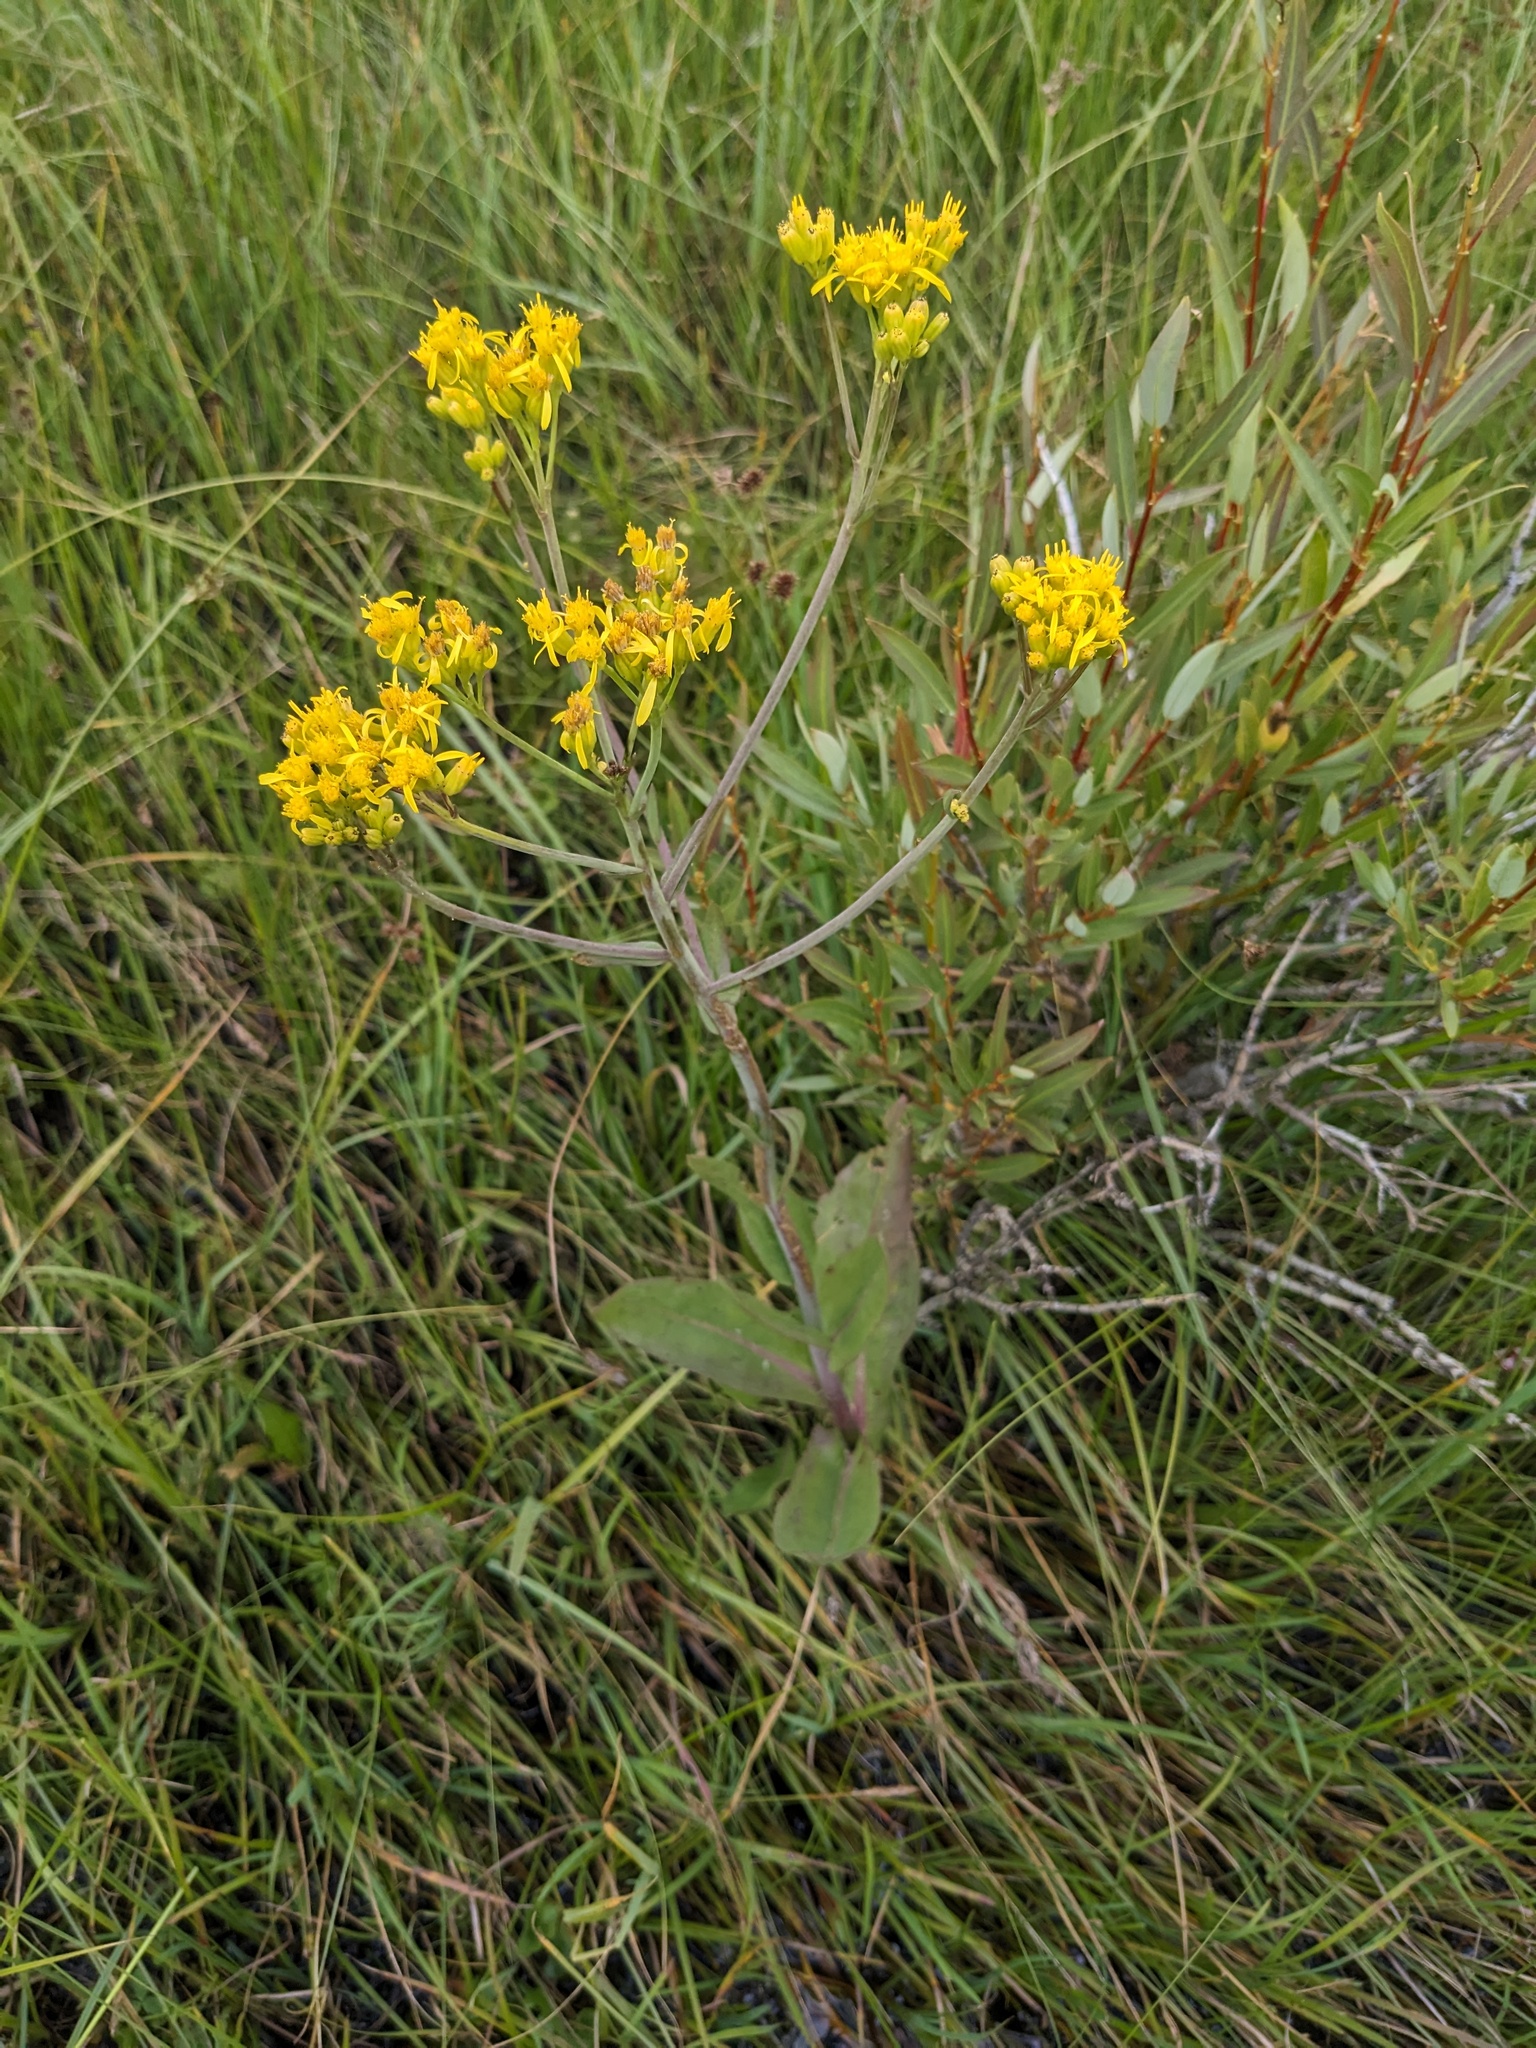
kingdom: Plantae
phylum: Tracheophyta
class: Magnoliopsida
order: Asterales
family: Asteraceae
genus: Senecio
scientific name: Senecio hydrophilus
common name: Water ragwort
